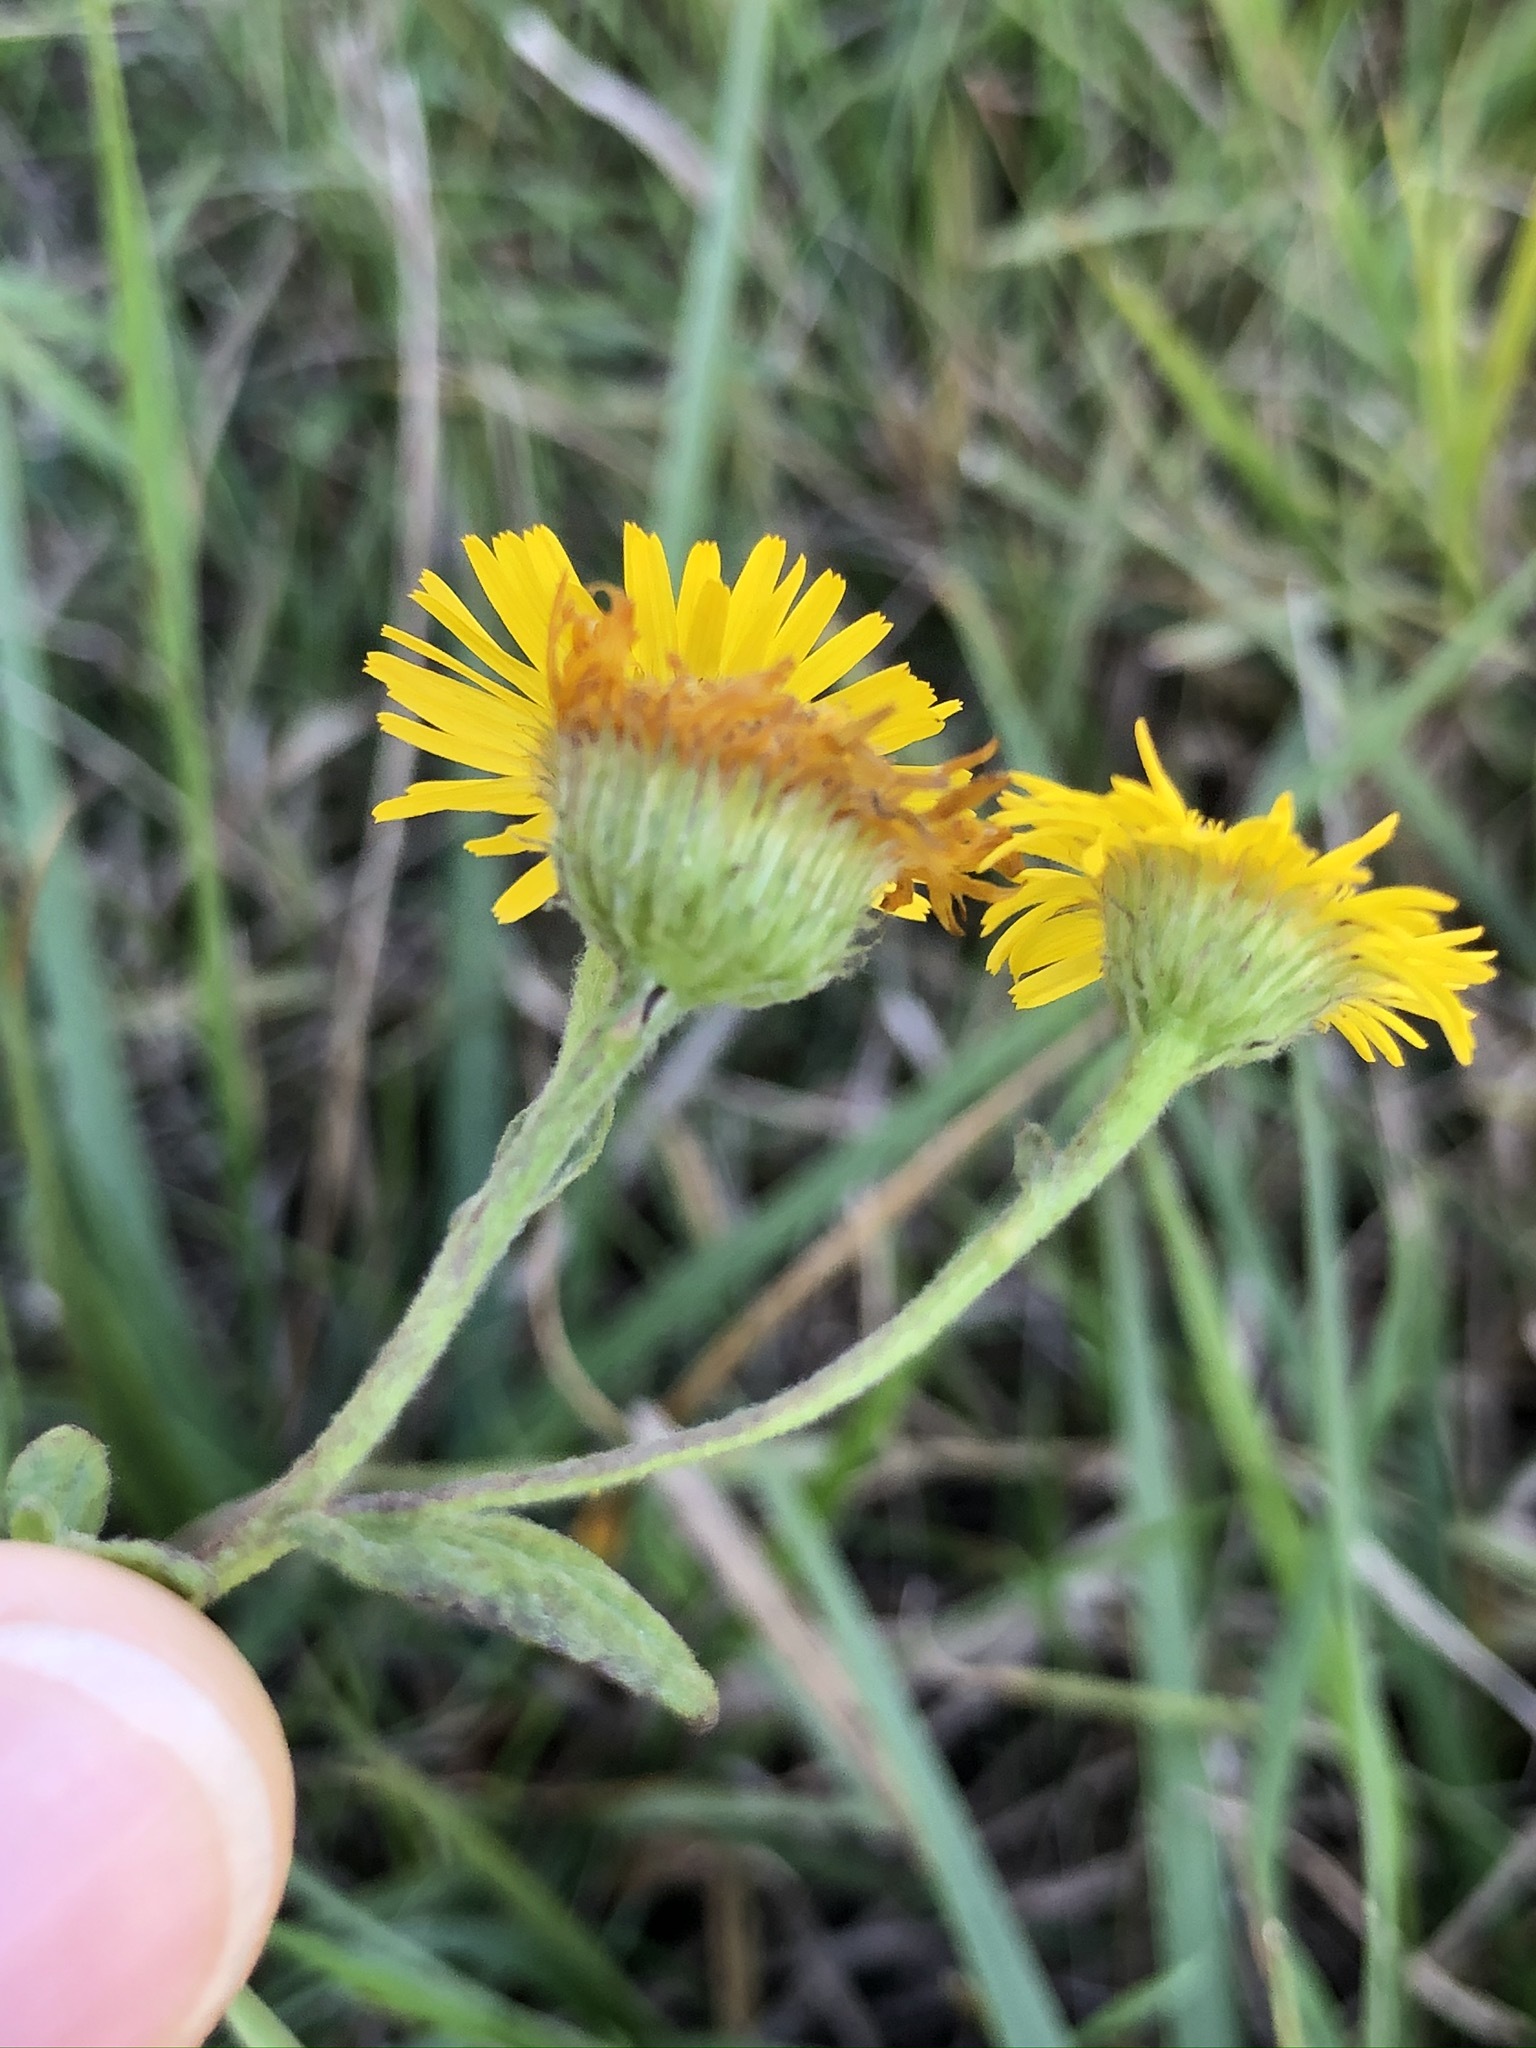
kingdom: Plantae
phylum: Tracheophyta
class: Magnoliopsida
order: Asterales
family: Asteraceae
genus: Pulicaria
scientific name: Pulicaria dysenterica
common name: Common fleabane
